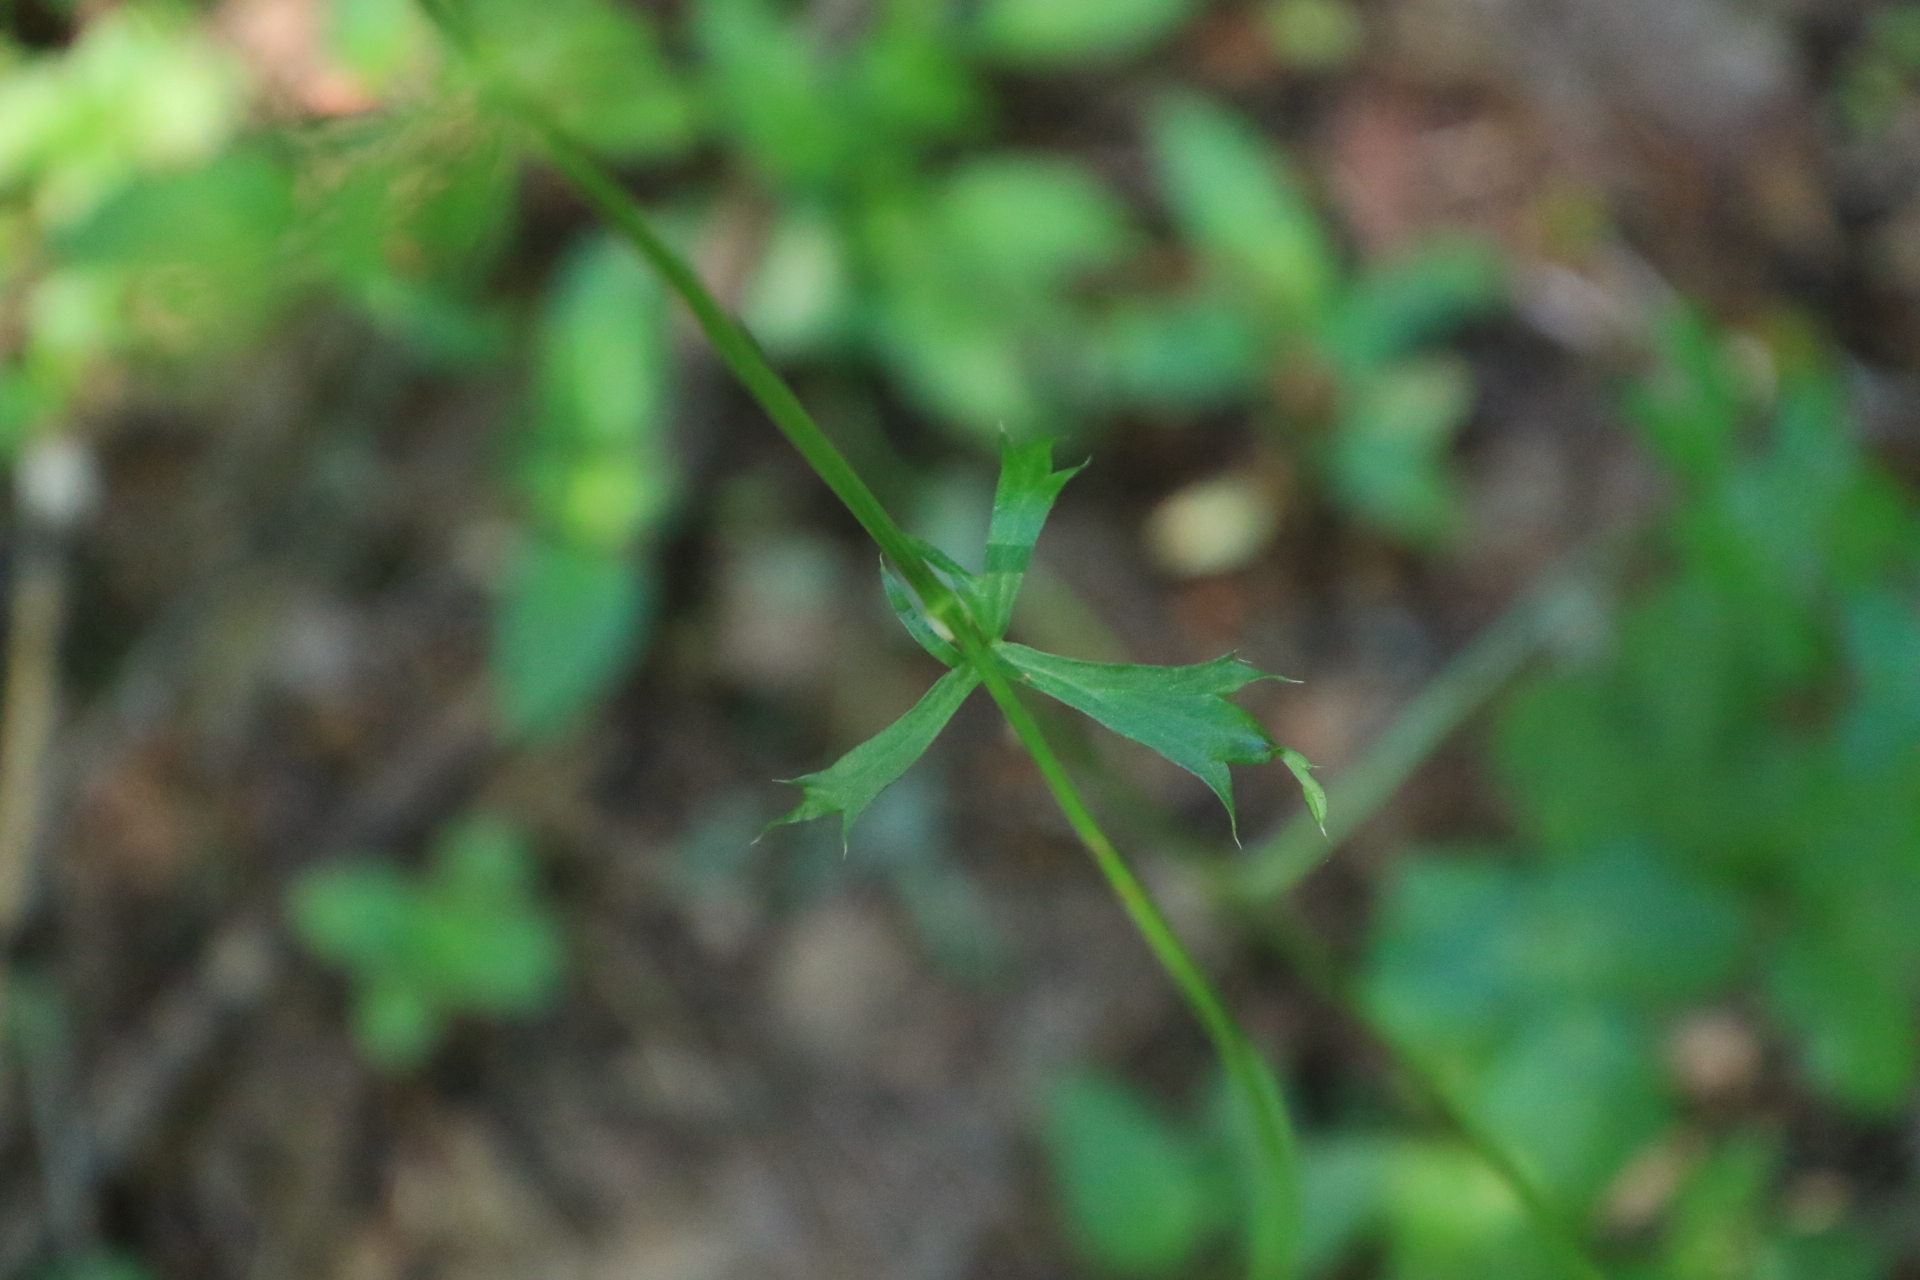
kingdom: Plantae
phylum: Tracheophyta
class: Magnoliopsida
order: Apiales
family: Apiaceae
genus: Sanicula
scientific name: Sanicula crassicaulis
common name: Western snakeroot
